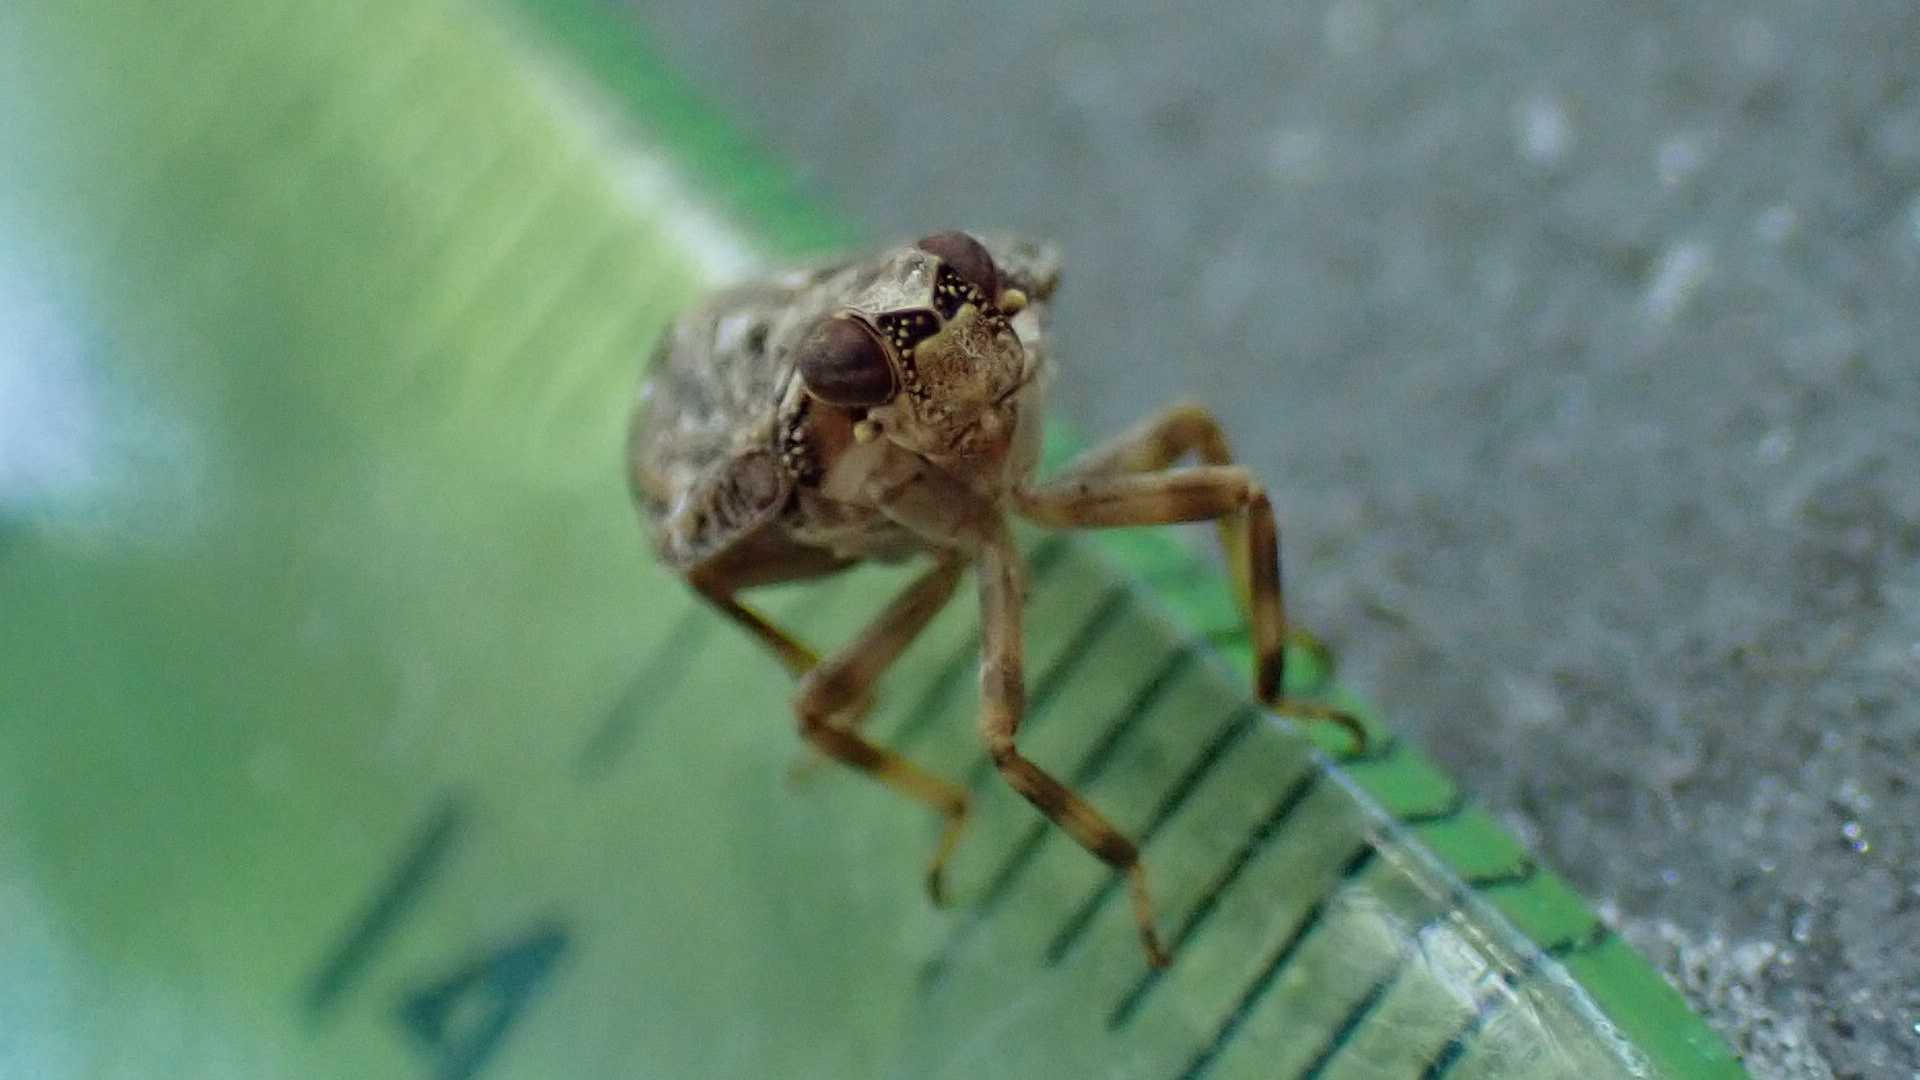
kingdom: Animalia
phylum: Arthropoda
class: Insecta
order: Hemiptera
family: Issidae
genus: Issus
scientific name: Issus coleoptratus
